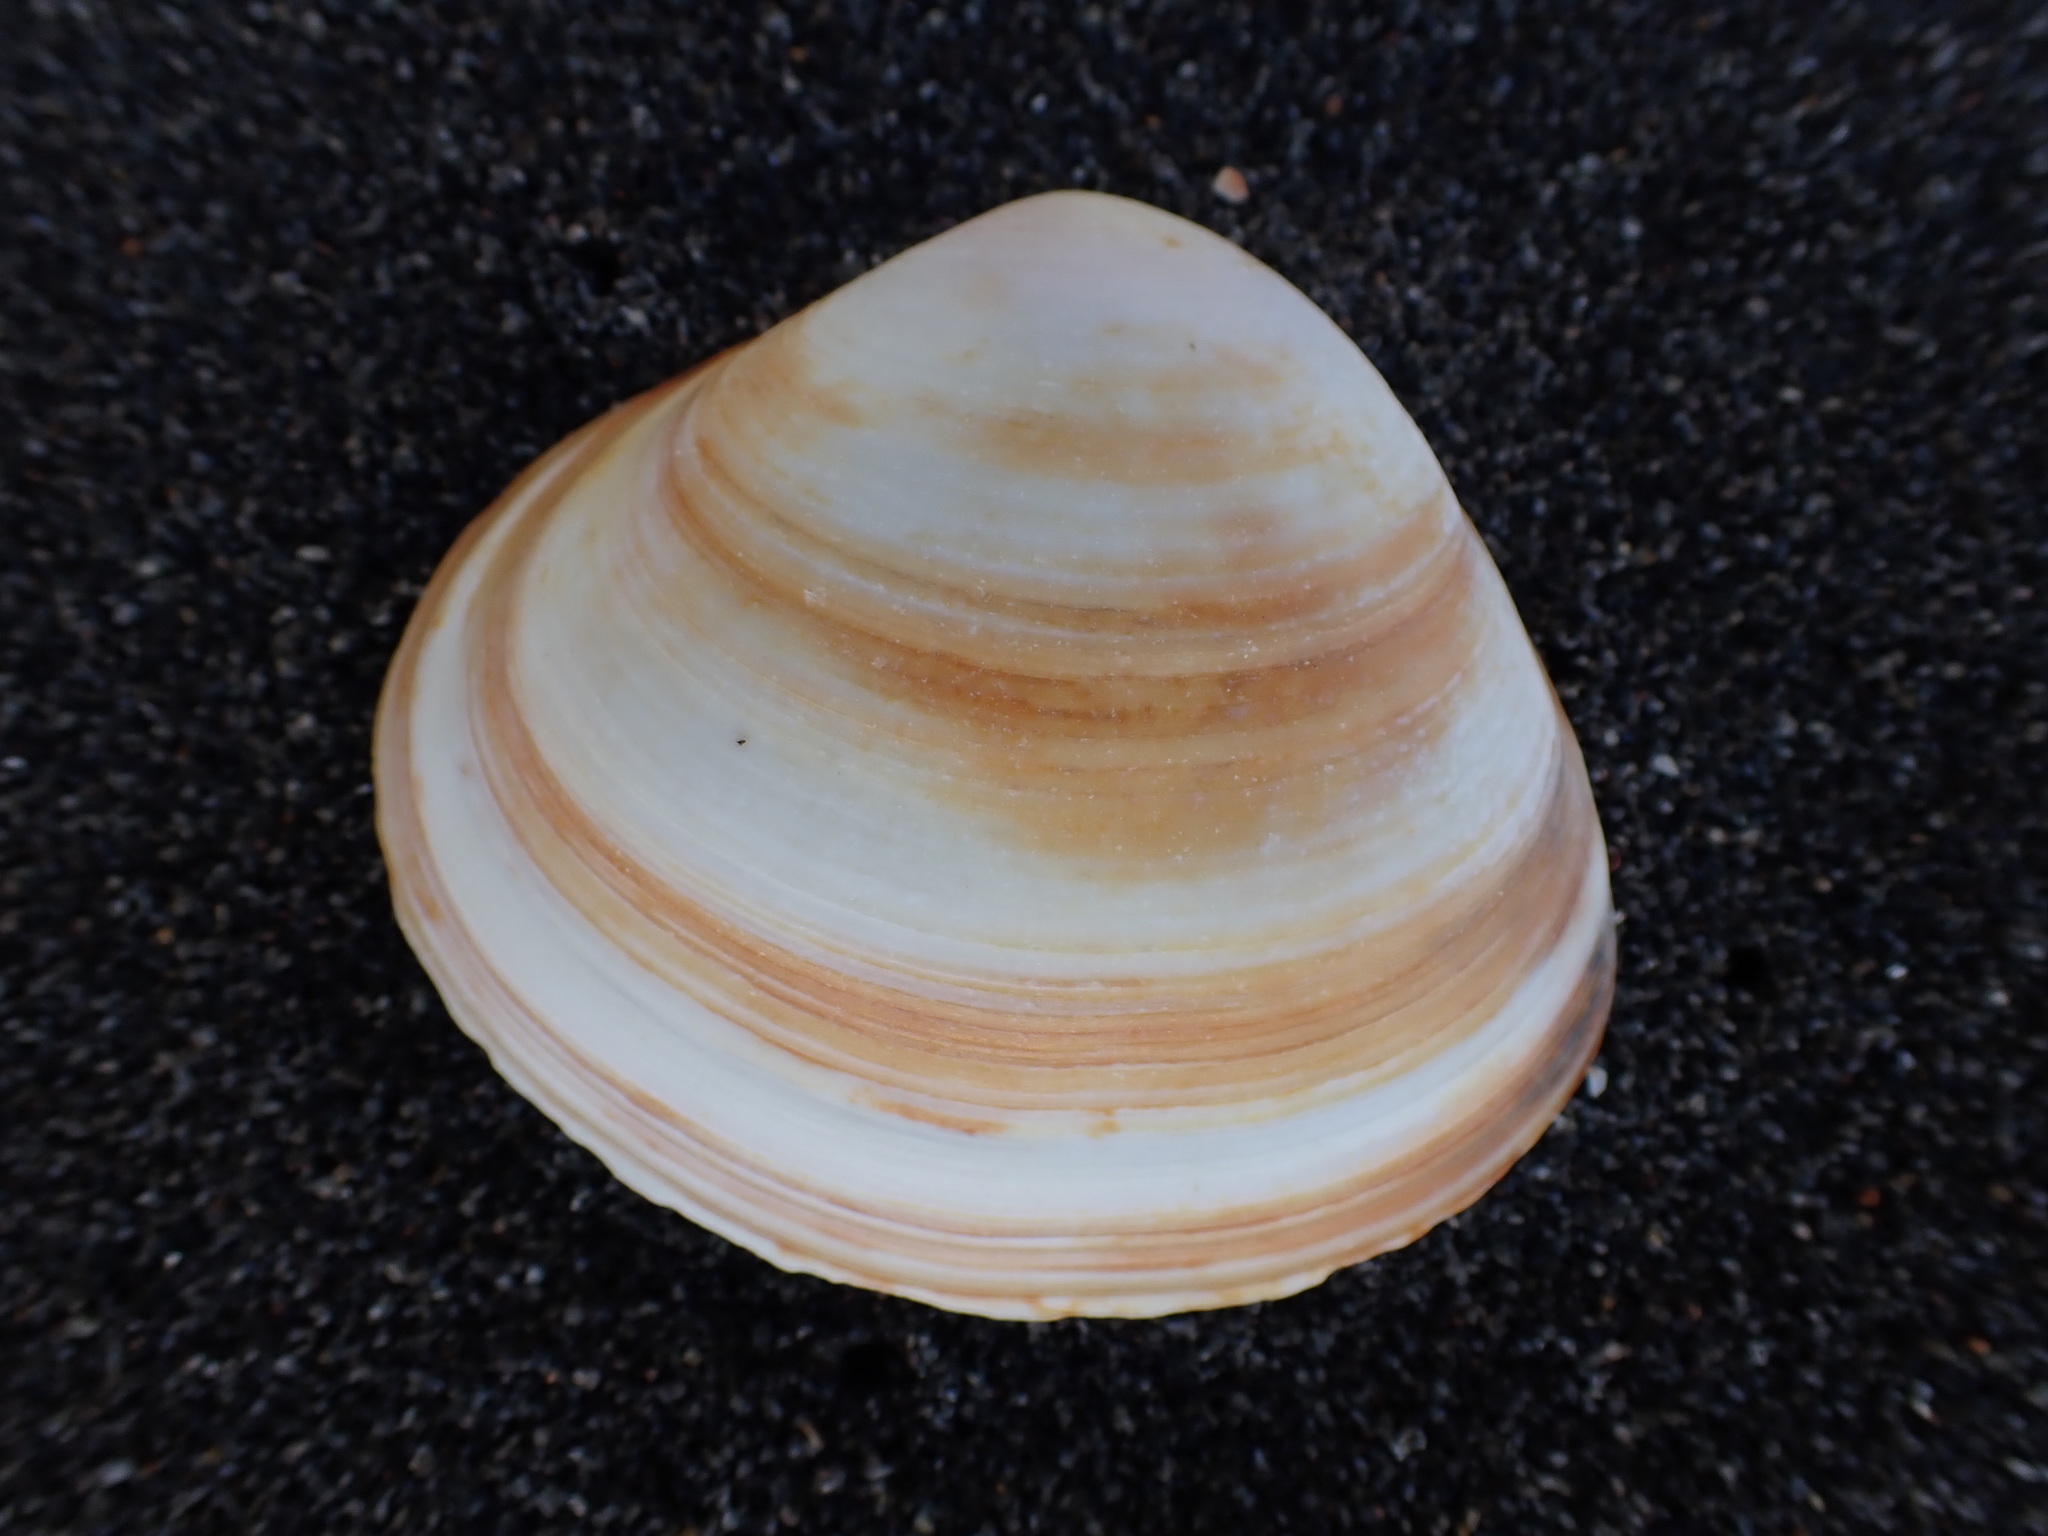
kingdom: Animalia
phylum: Mollusca
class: Bivalvia
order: Venerida
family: Mactridae
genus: Spisula
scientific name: Spisula murchisoni
